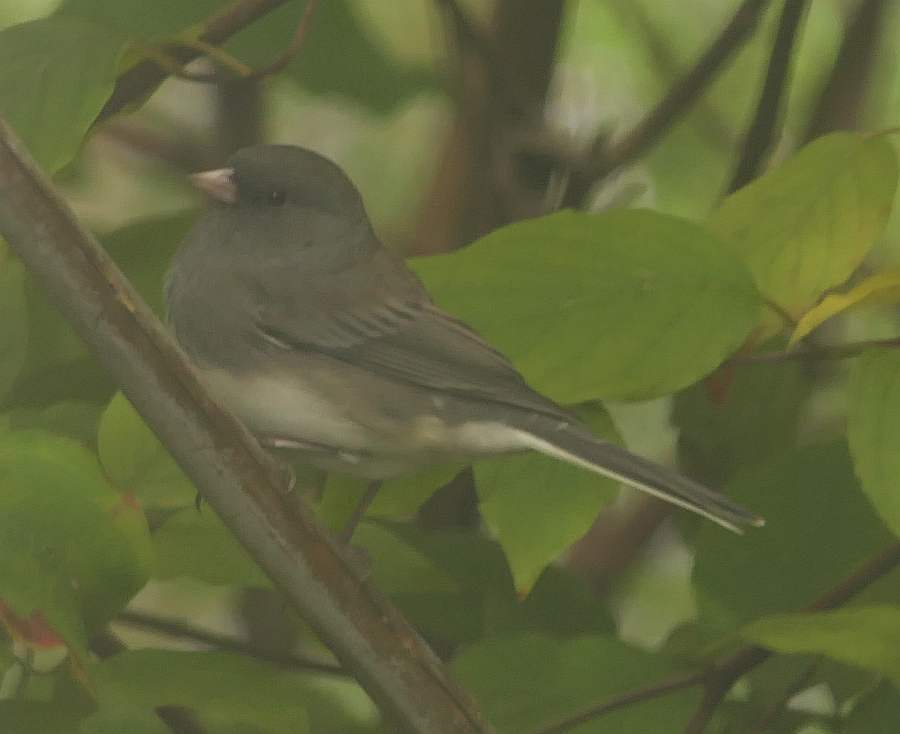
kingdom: Animalia
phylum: Chordata
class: Aves
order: Passeriformes
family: Passerellidae
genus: Junco
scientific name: Junco hyemalis
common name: Dark-eyed junco
